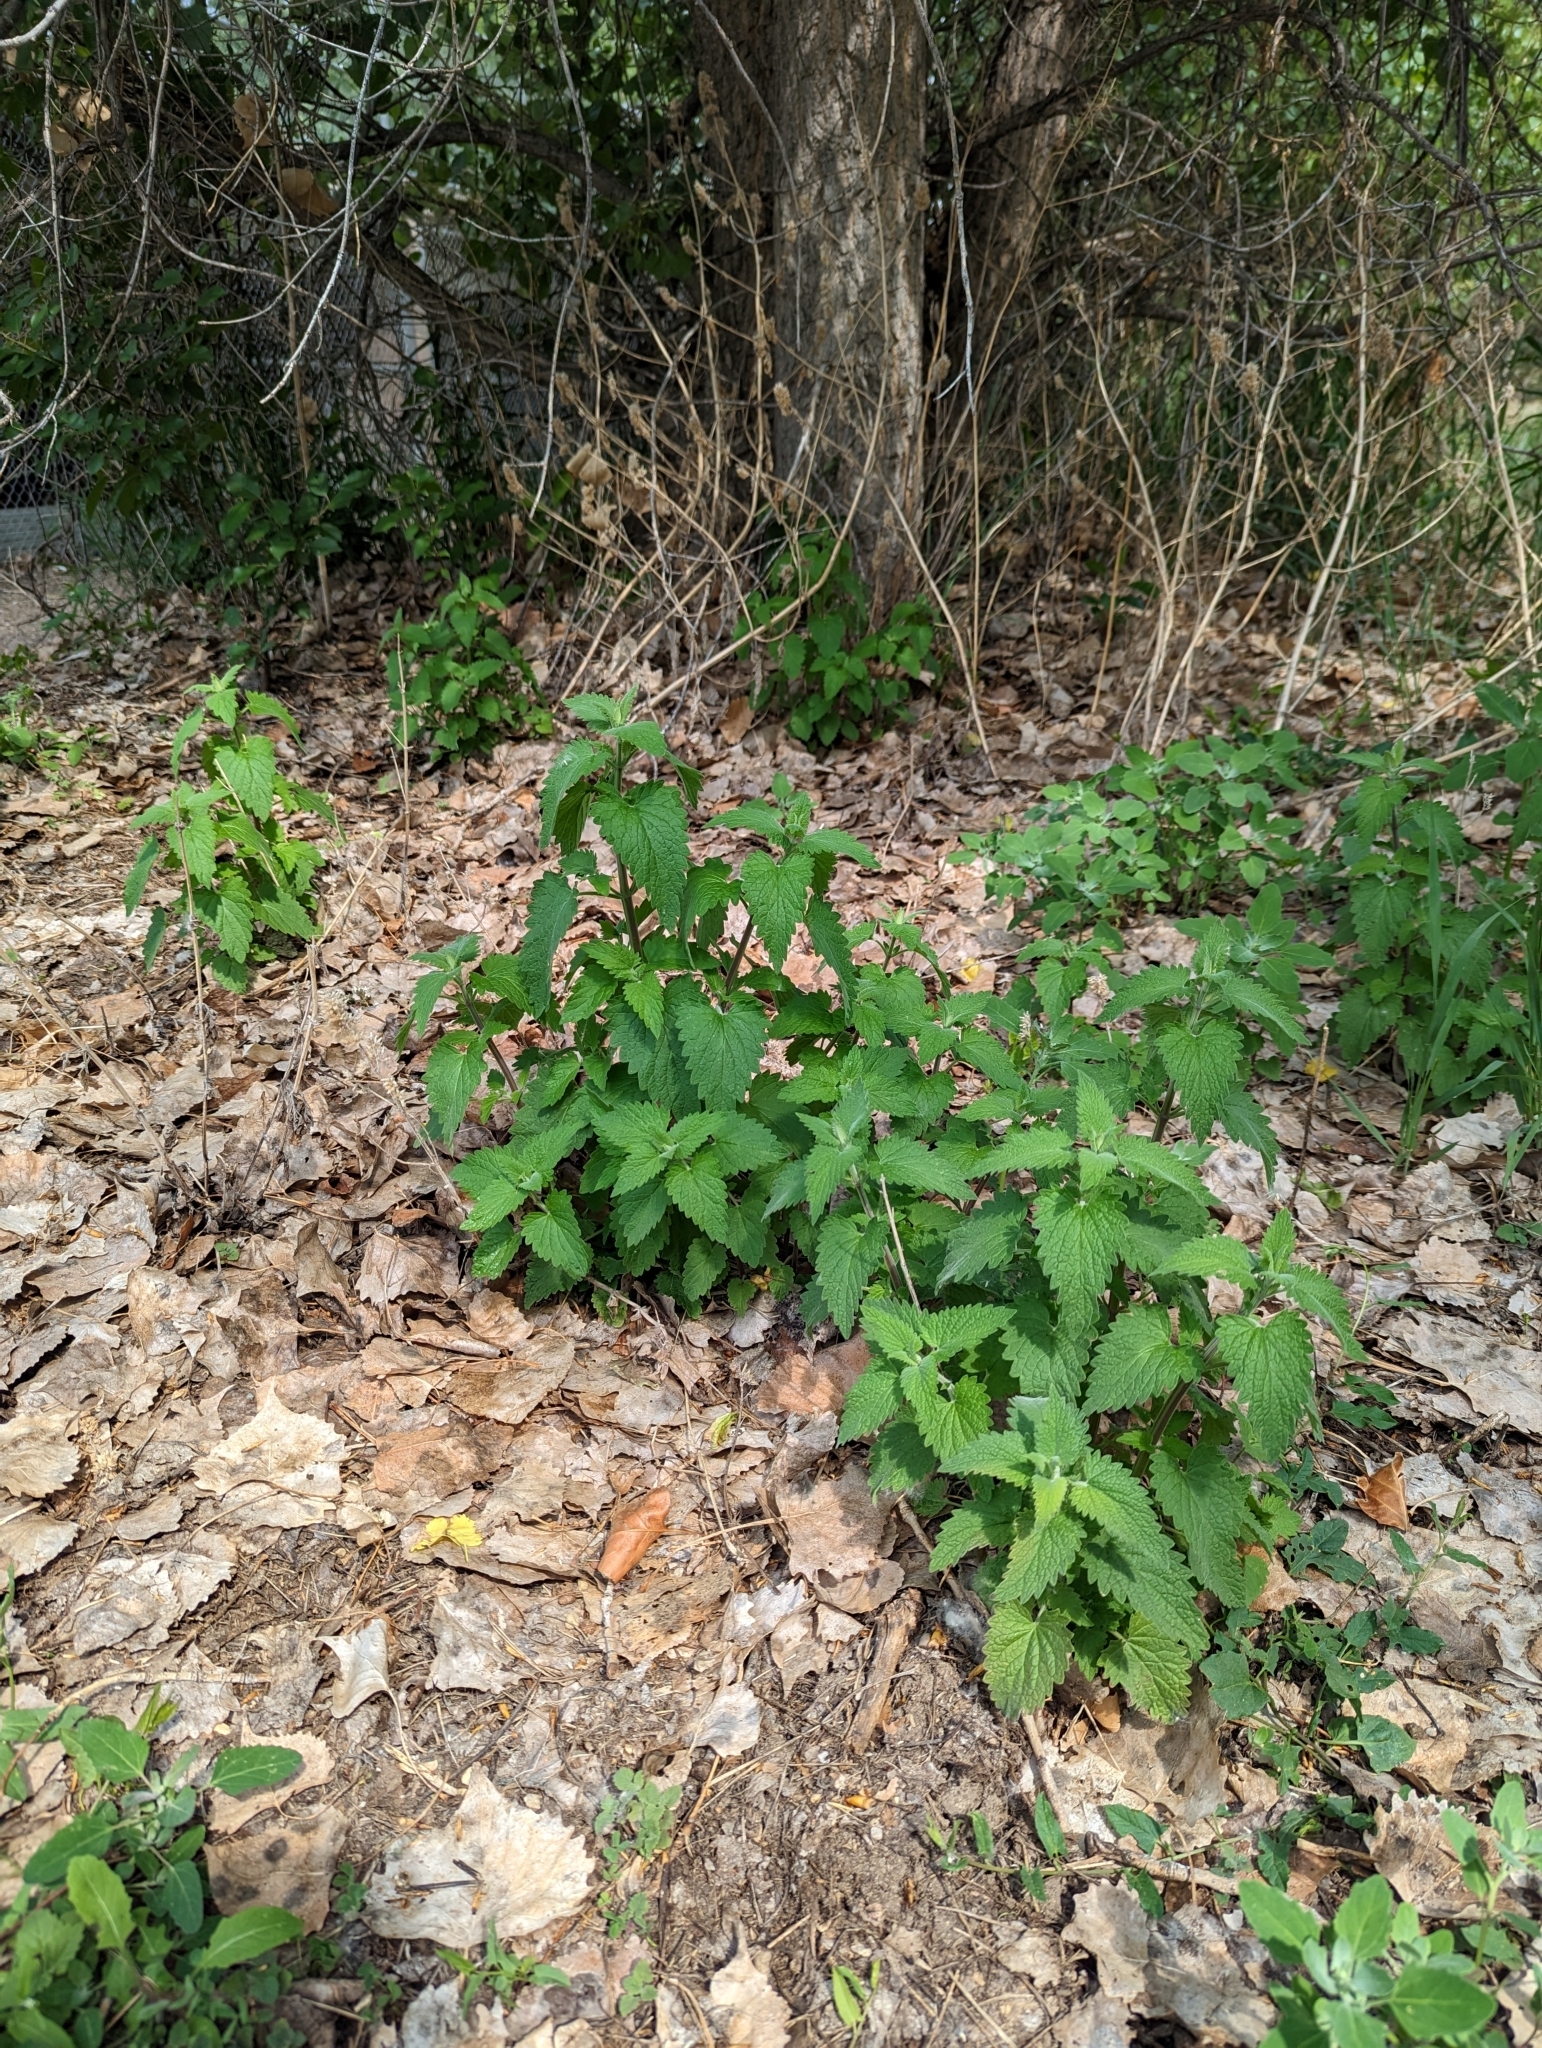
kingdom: Plantae
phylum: Tracheophyta
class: Magnoliopsida
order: Lamiales
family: Lamiaceae
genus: Nepeta
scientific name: Nepeta cataria
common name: Catnip
